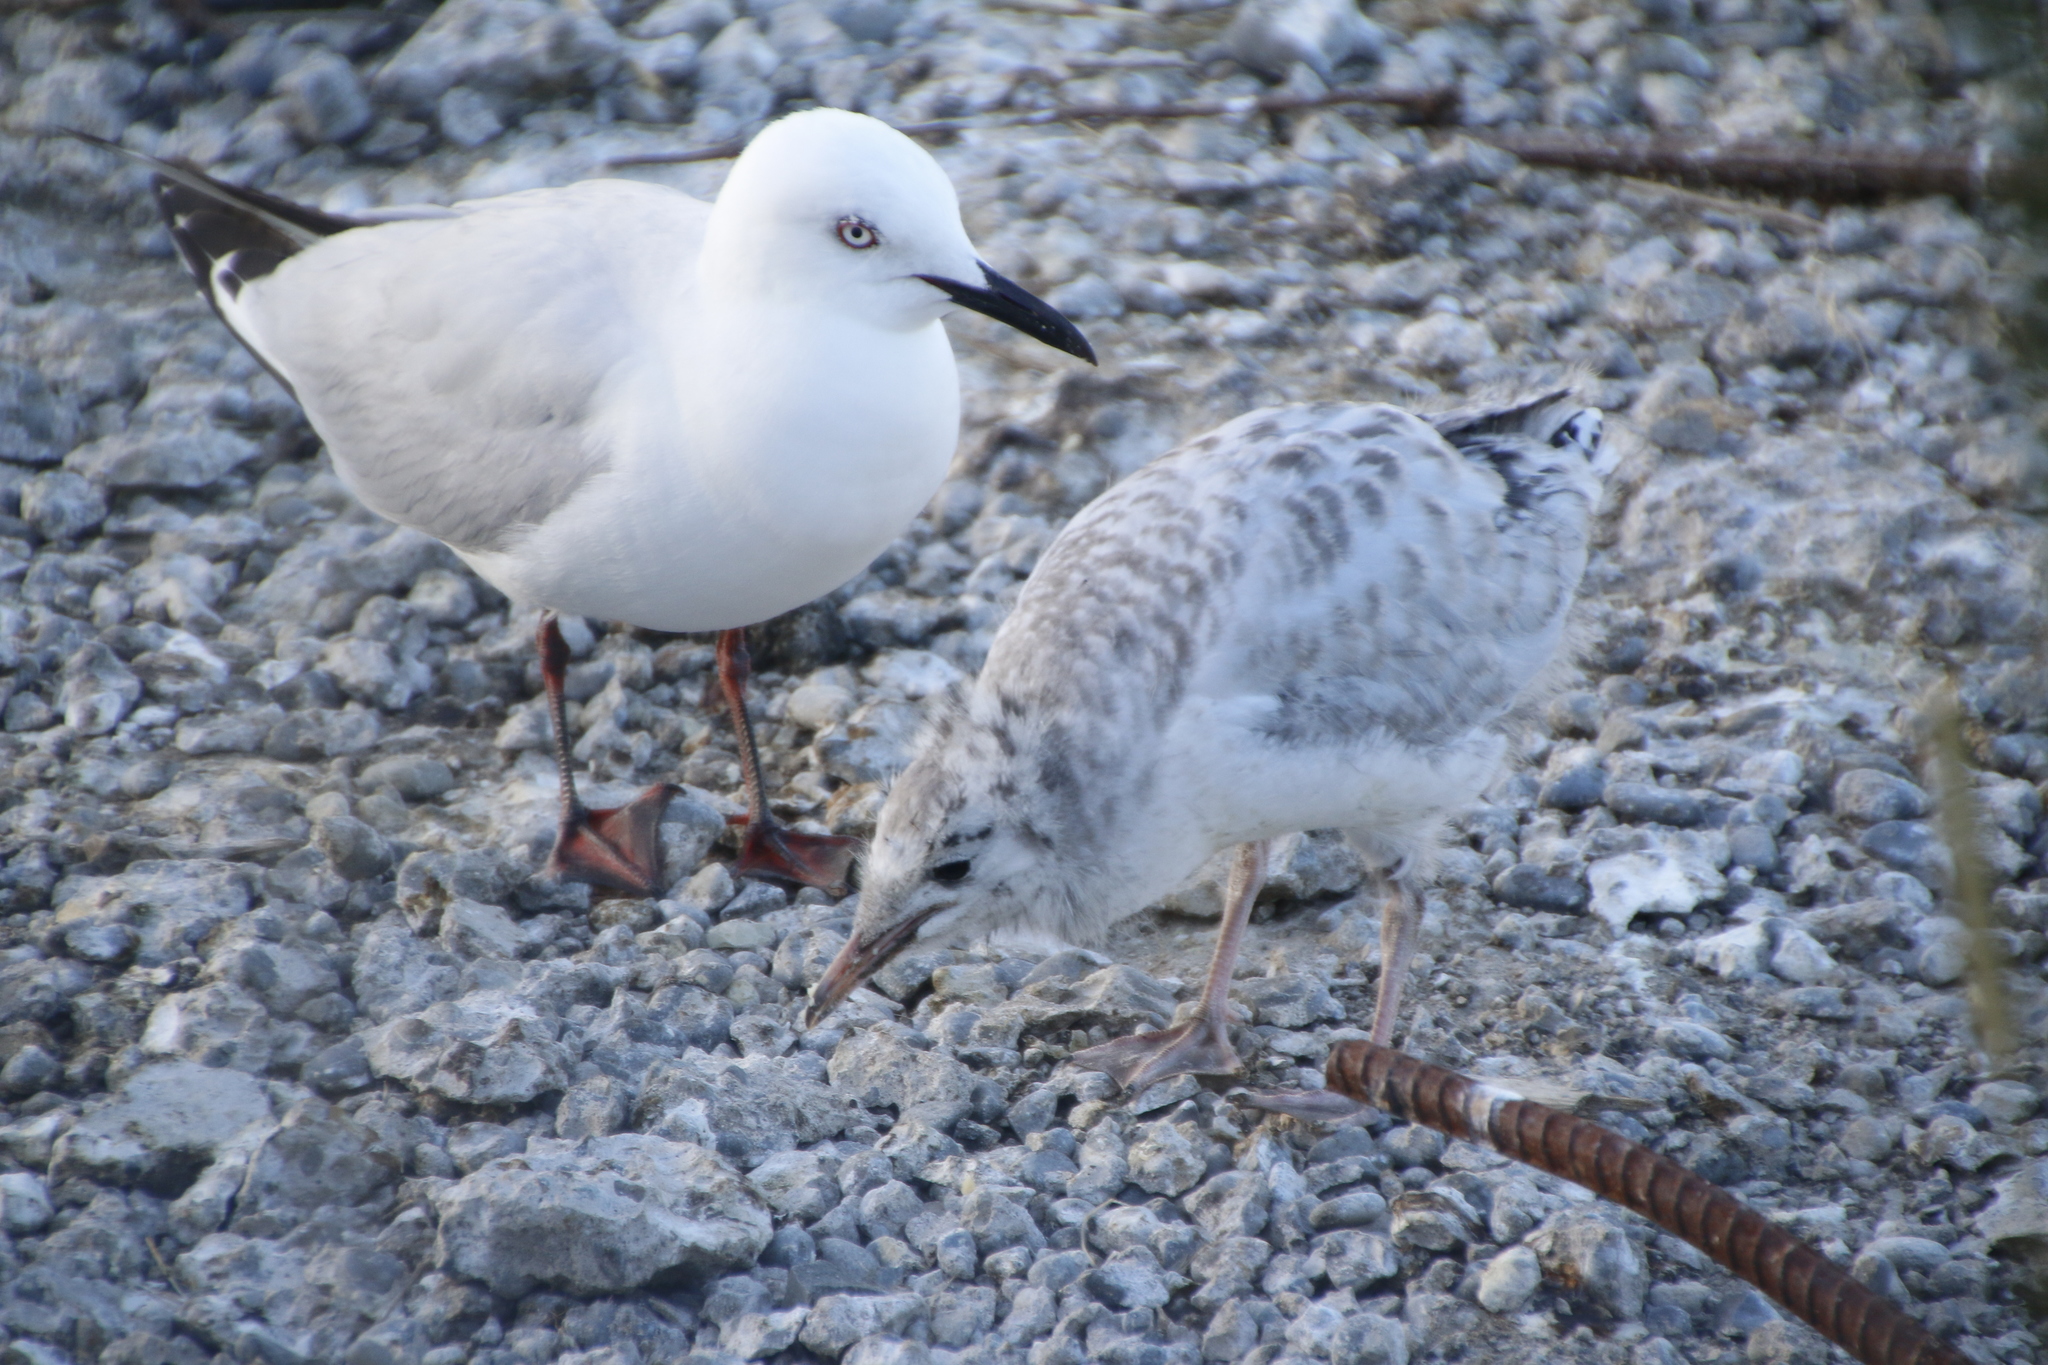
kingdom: Animalia
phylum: Chordata
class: Aves
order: Charadriiformes
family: Laridae
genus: Chroicocephalus
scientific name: Chroicocephalus bulleri
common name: Black-billed gull
